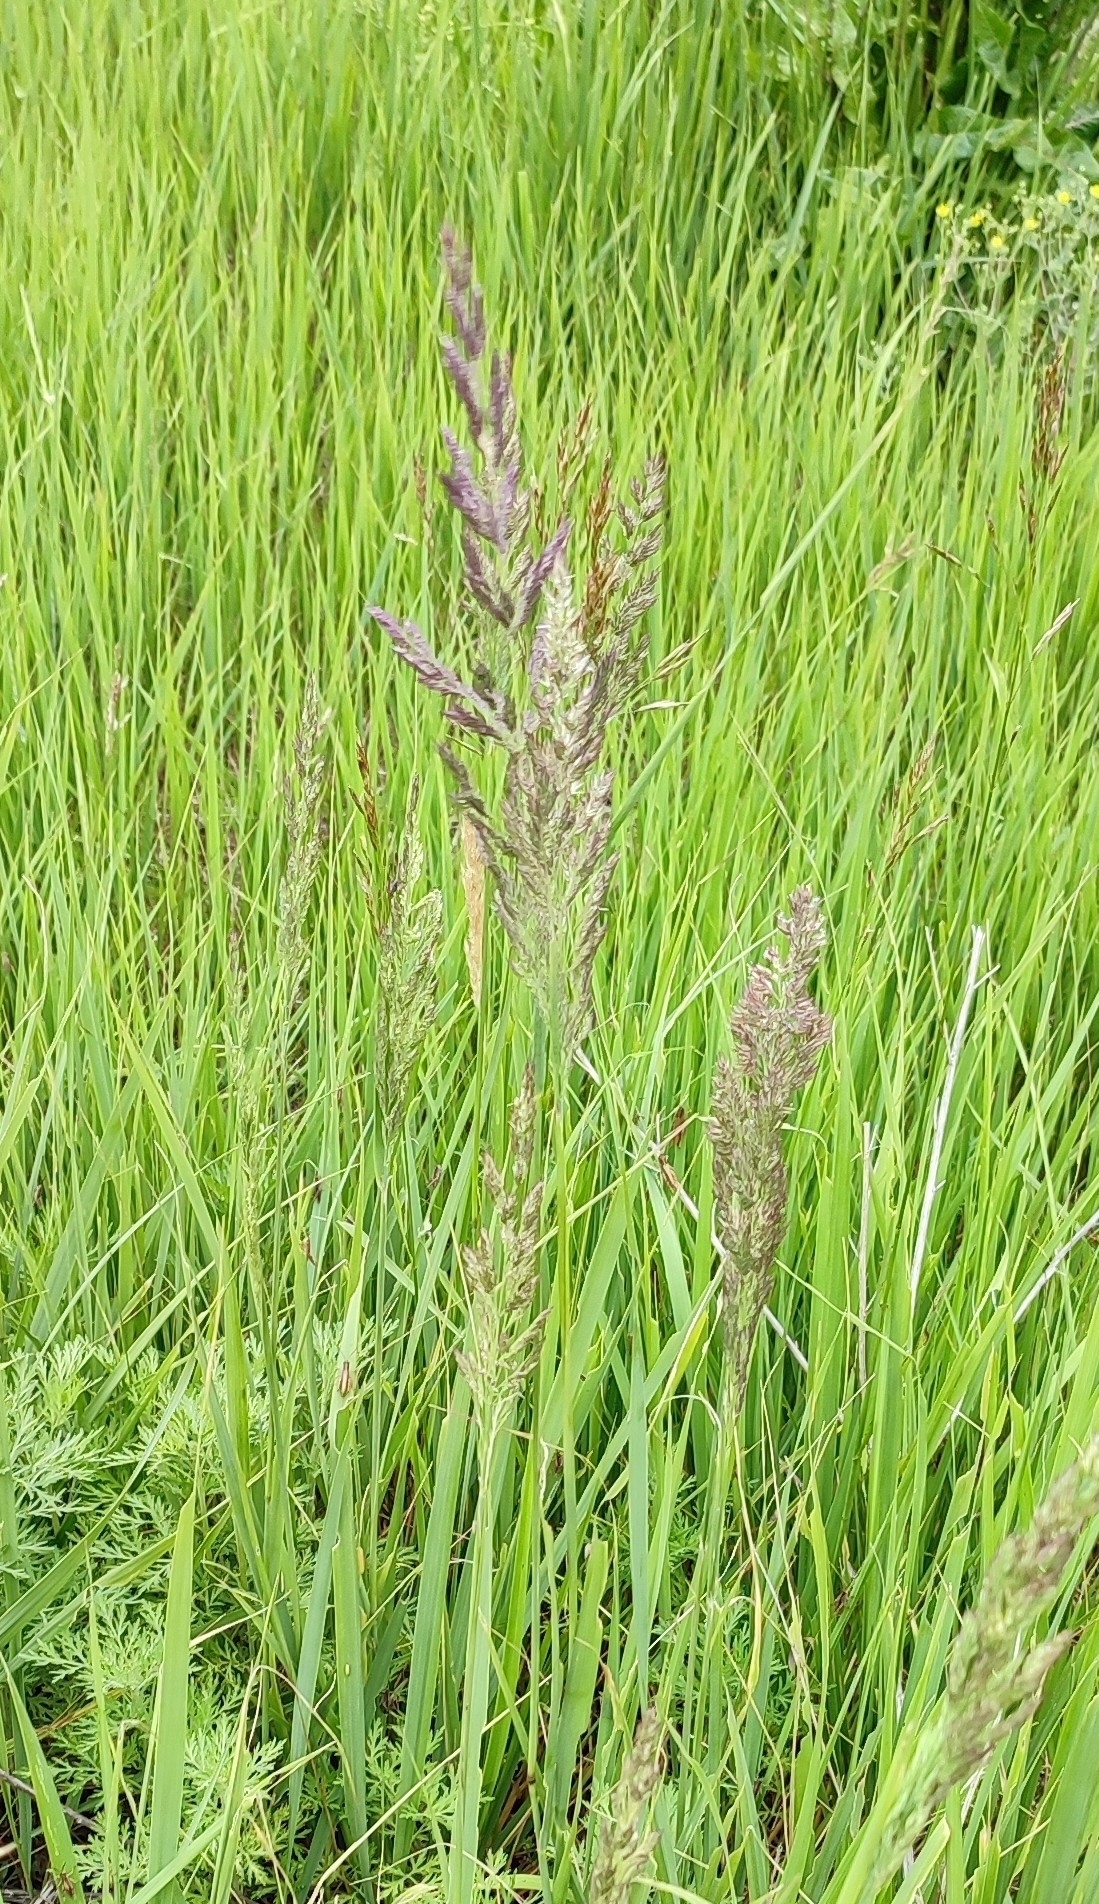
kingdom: Plantae
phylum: Tracheophyta
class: Liliopsida
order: Poales
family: Poaceae
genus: Calamagrostis
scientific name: Calamagrostis epigejos
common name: Wood small-reed
